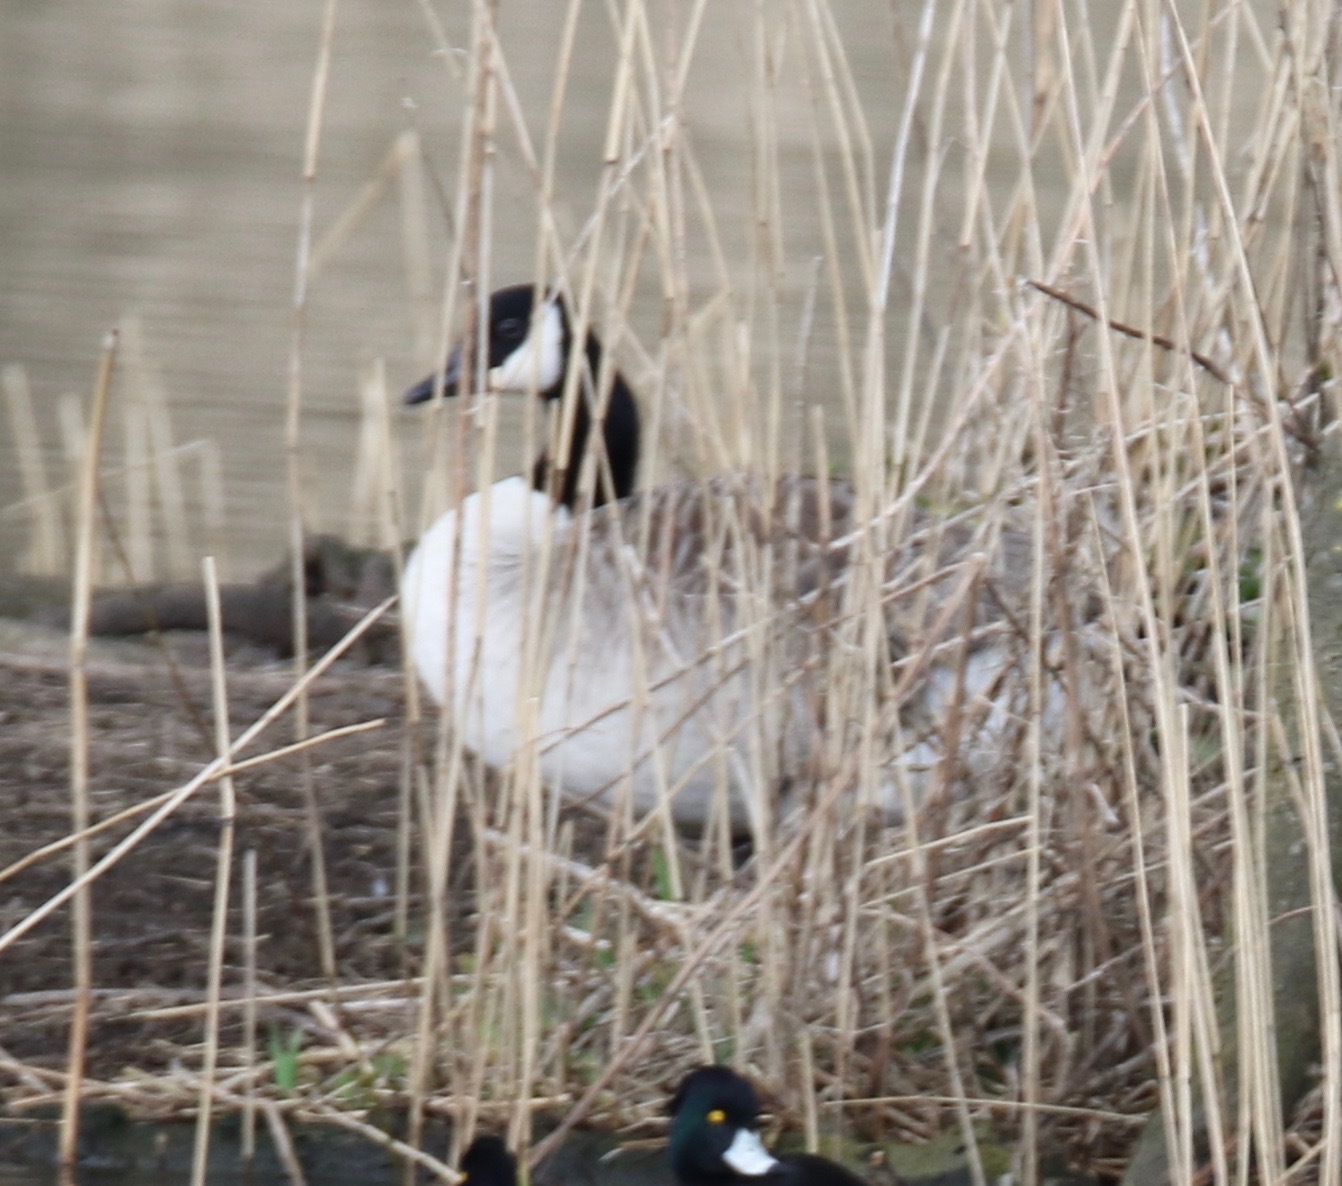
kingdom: Animalia
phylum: Chordata
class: Aves
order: Anseriformes
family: Anatidae
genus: Branta
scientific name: Branta canadensis
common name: Canada goose
